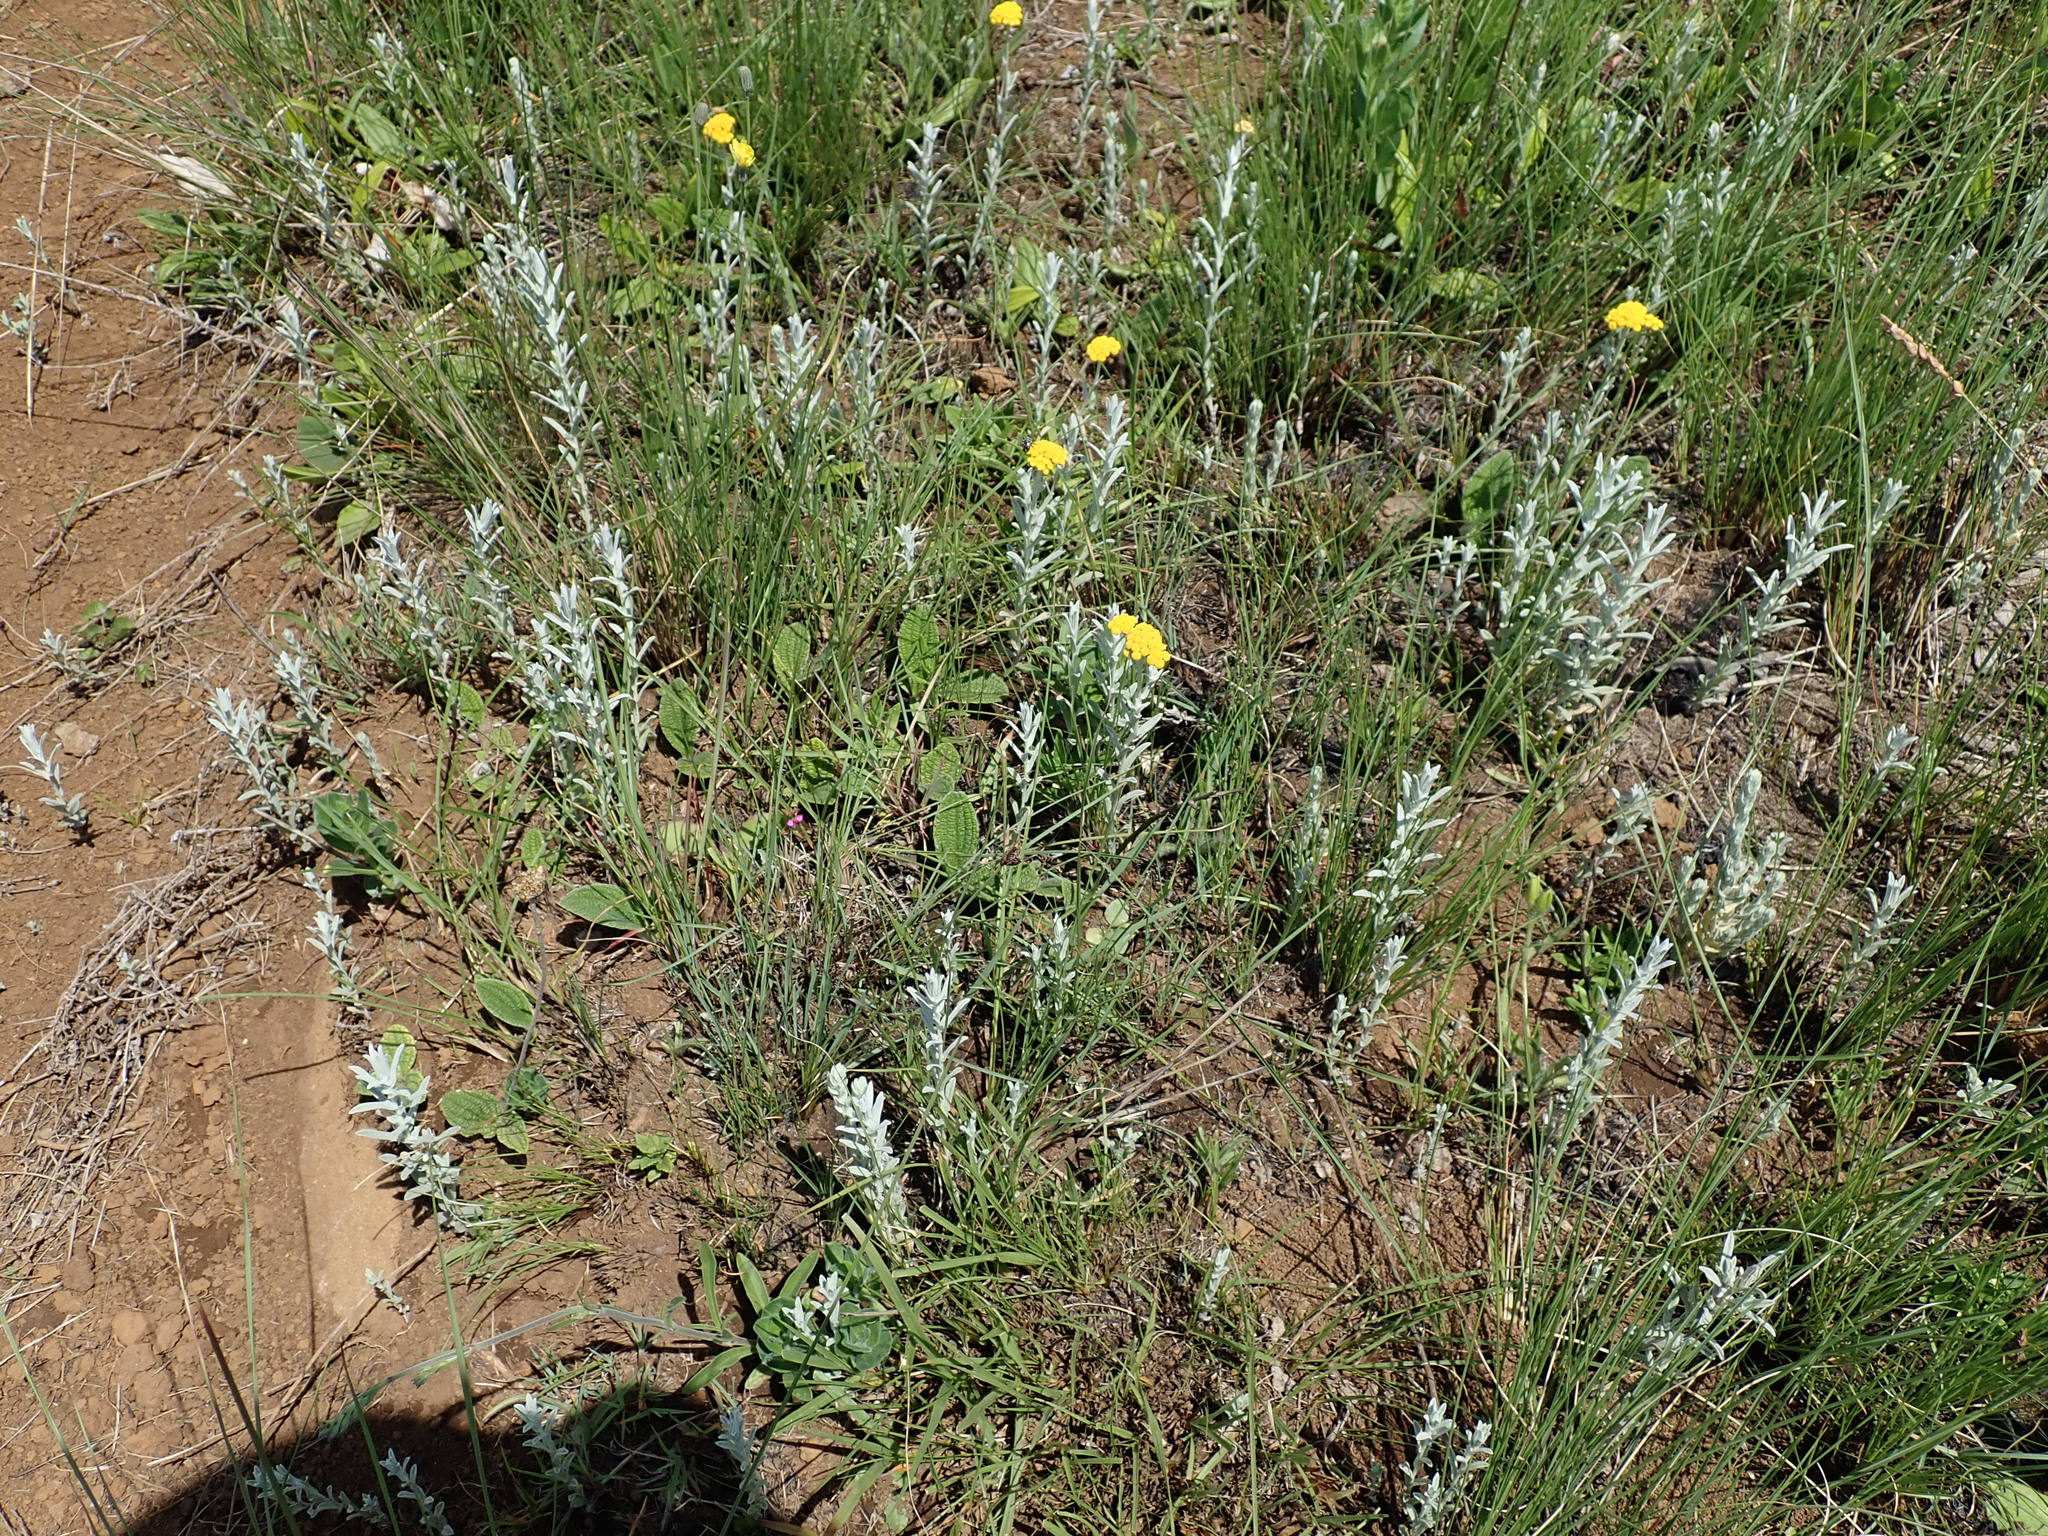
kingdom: Plantae
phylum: Tracheophyta
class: Magnoliopsida
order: Asterales
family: Asteraceae
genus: Helichrysum
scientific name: Helichrysum aureonitens
